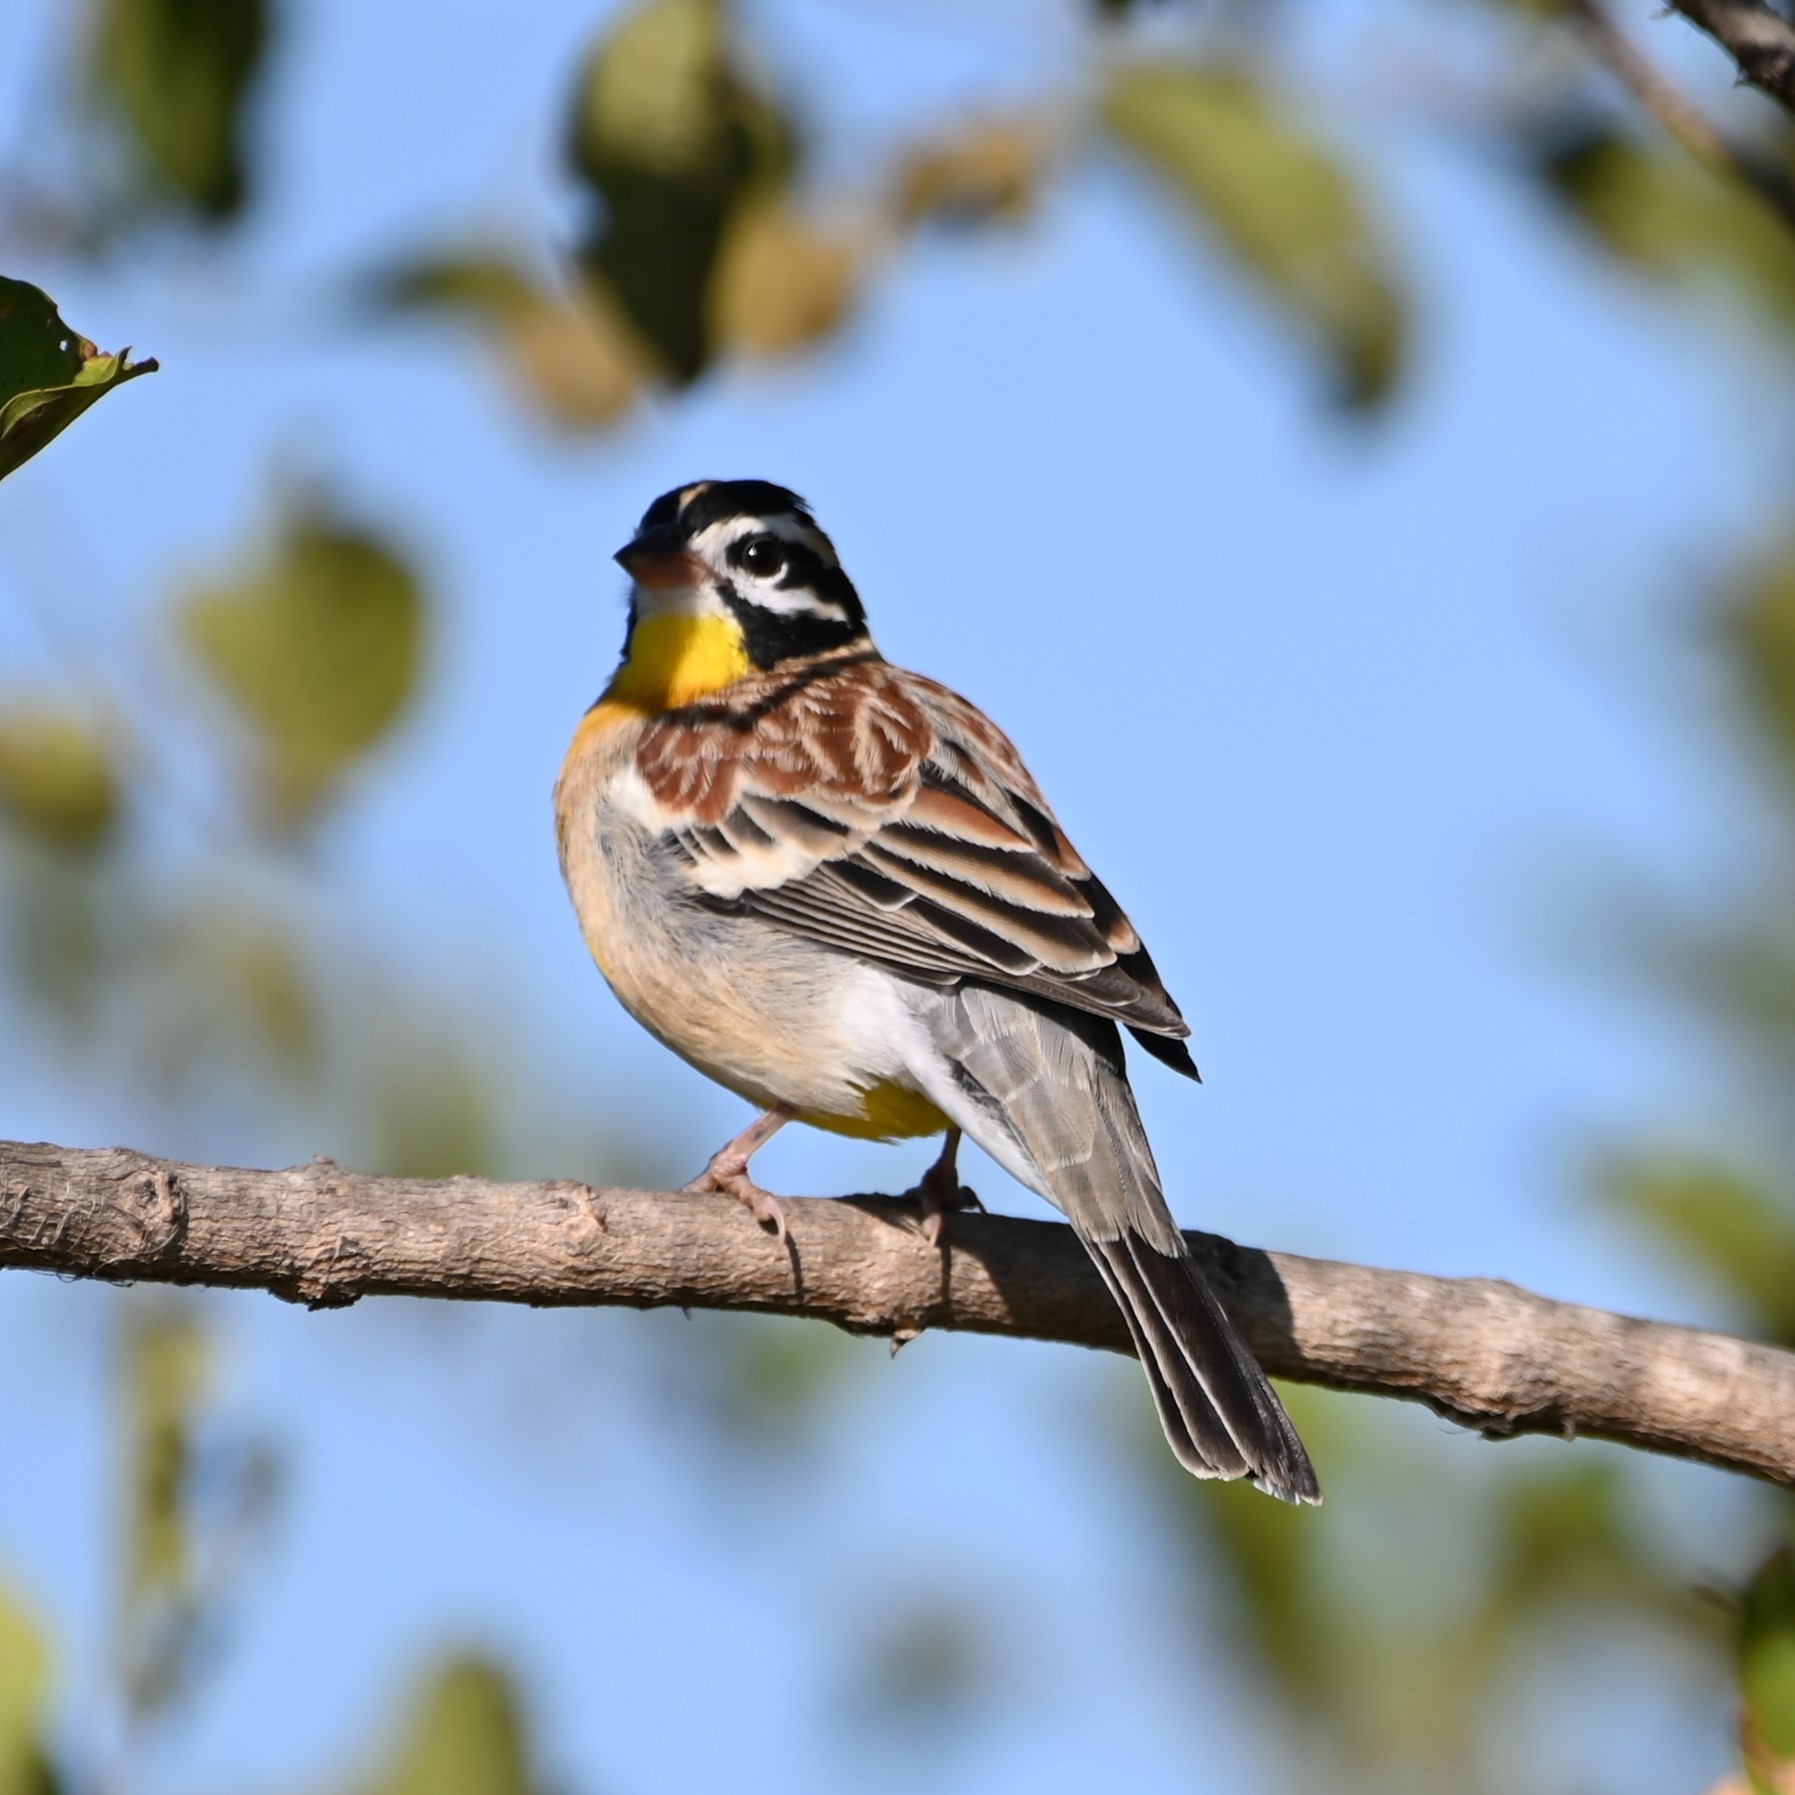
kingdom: Animalia
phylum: Chordata
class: Aves
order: Passeriformes
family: Emberizidae
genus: Emberiza
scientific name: Emberiza flaviventris
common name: Golden-breasted bunting
